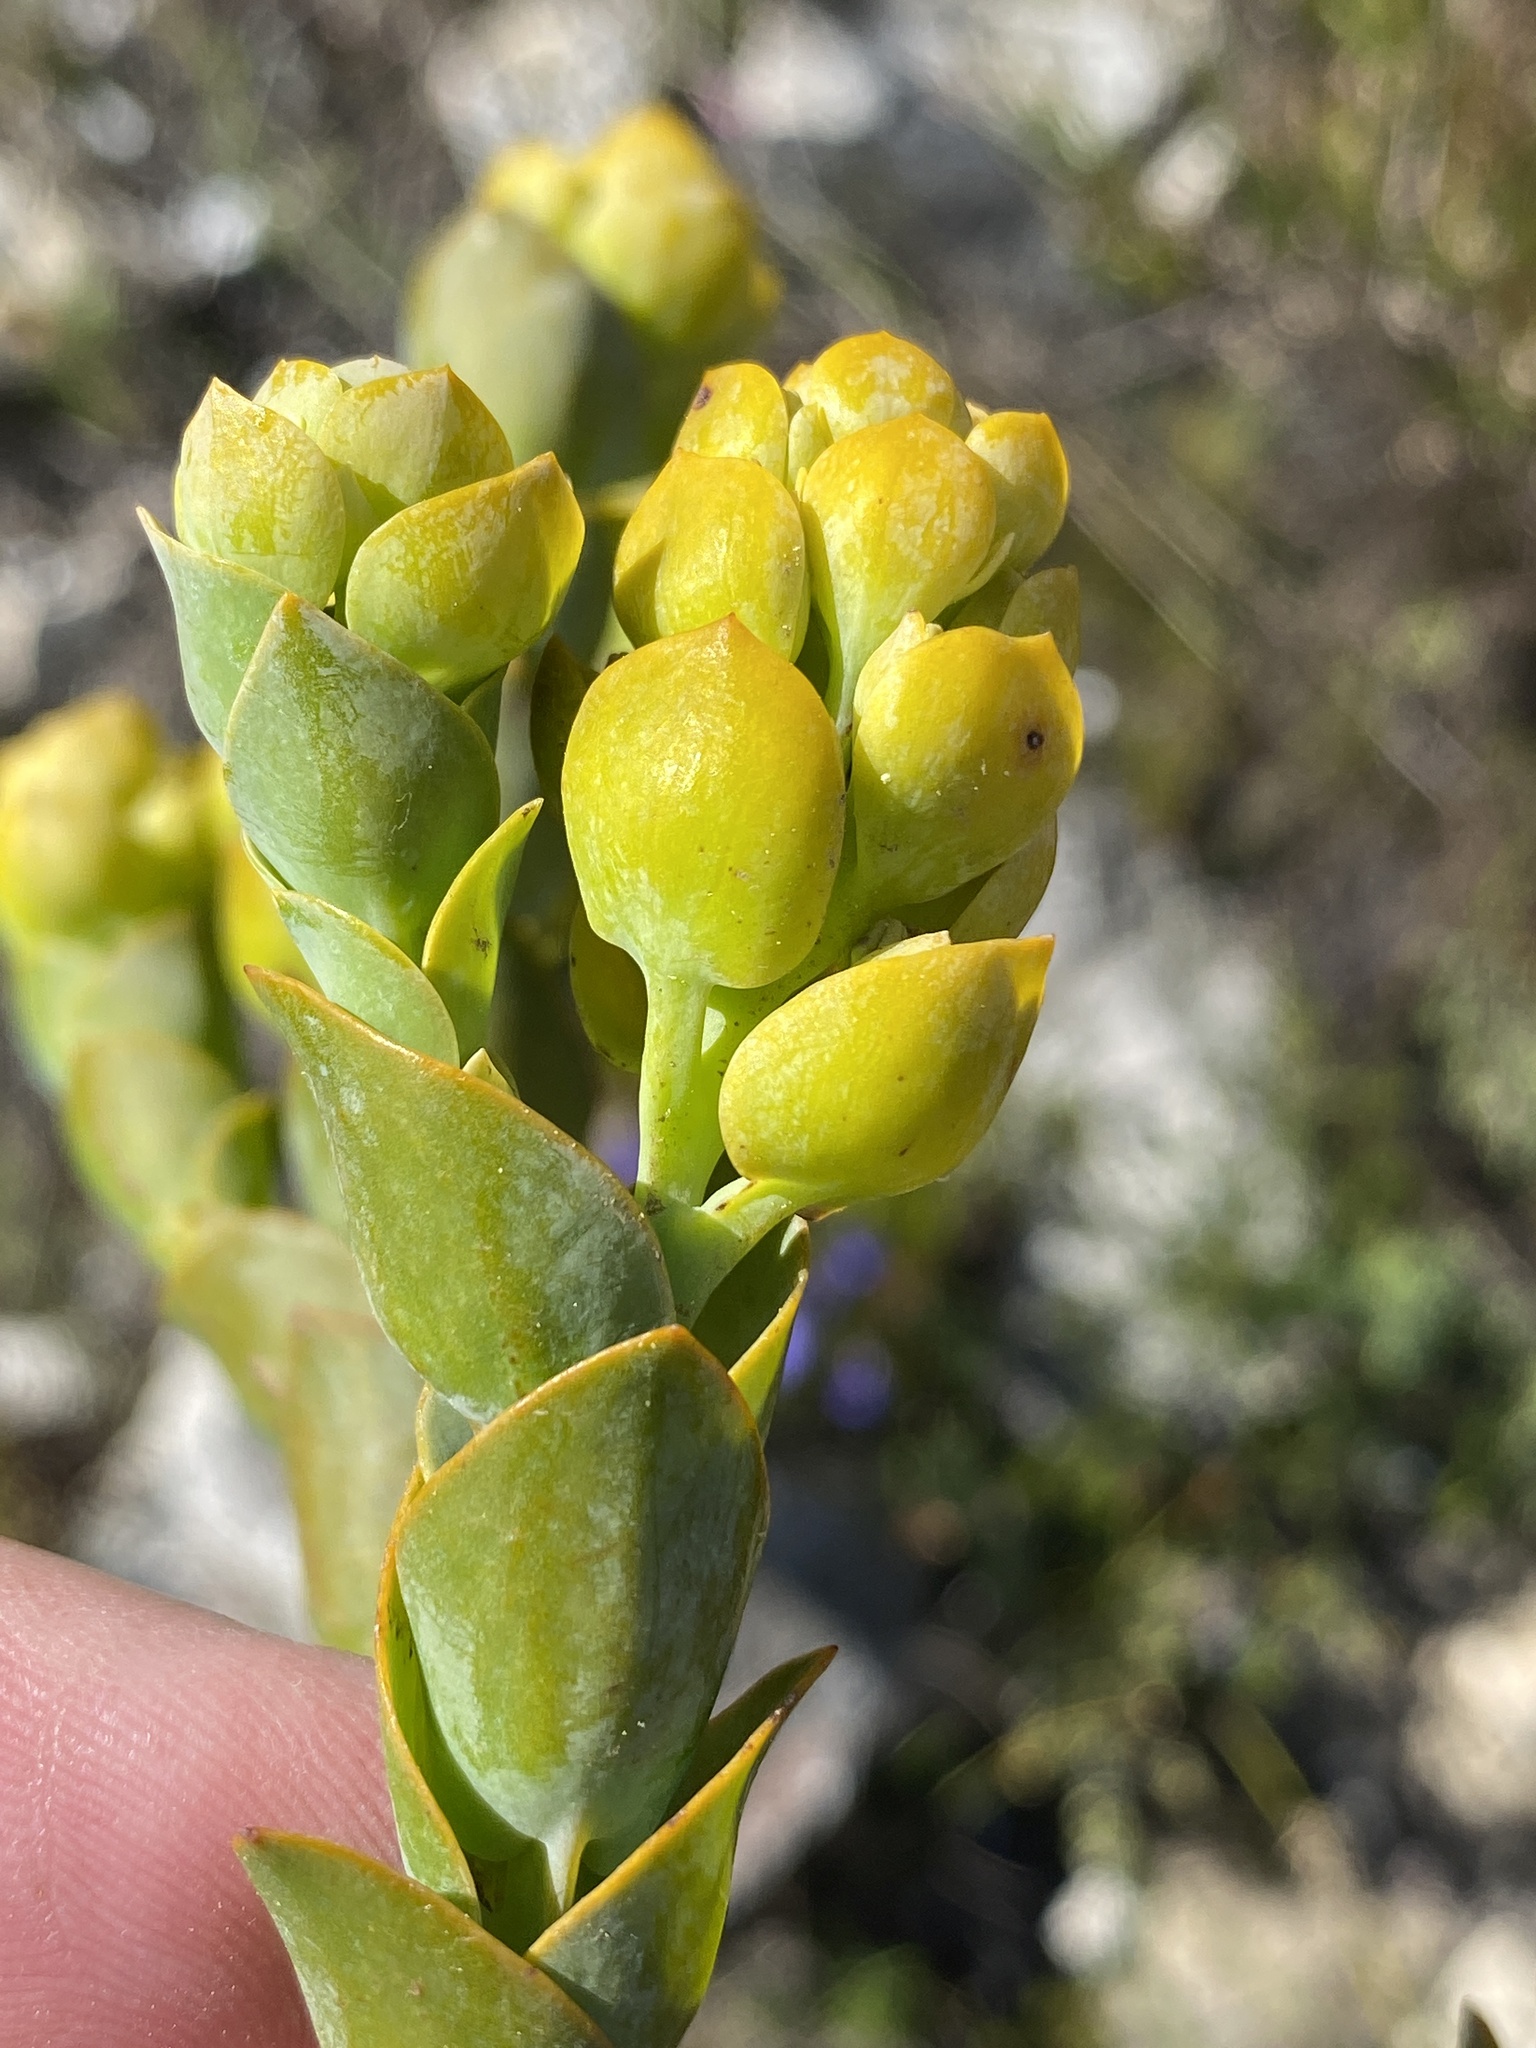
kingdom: Plantae
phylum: Tracheophyta
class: Magnoliopsida
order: Santalales
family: Thesiaceae
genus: Thesium
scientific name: Thesium euphorbioides
